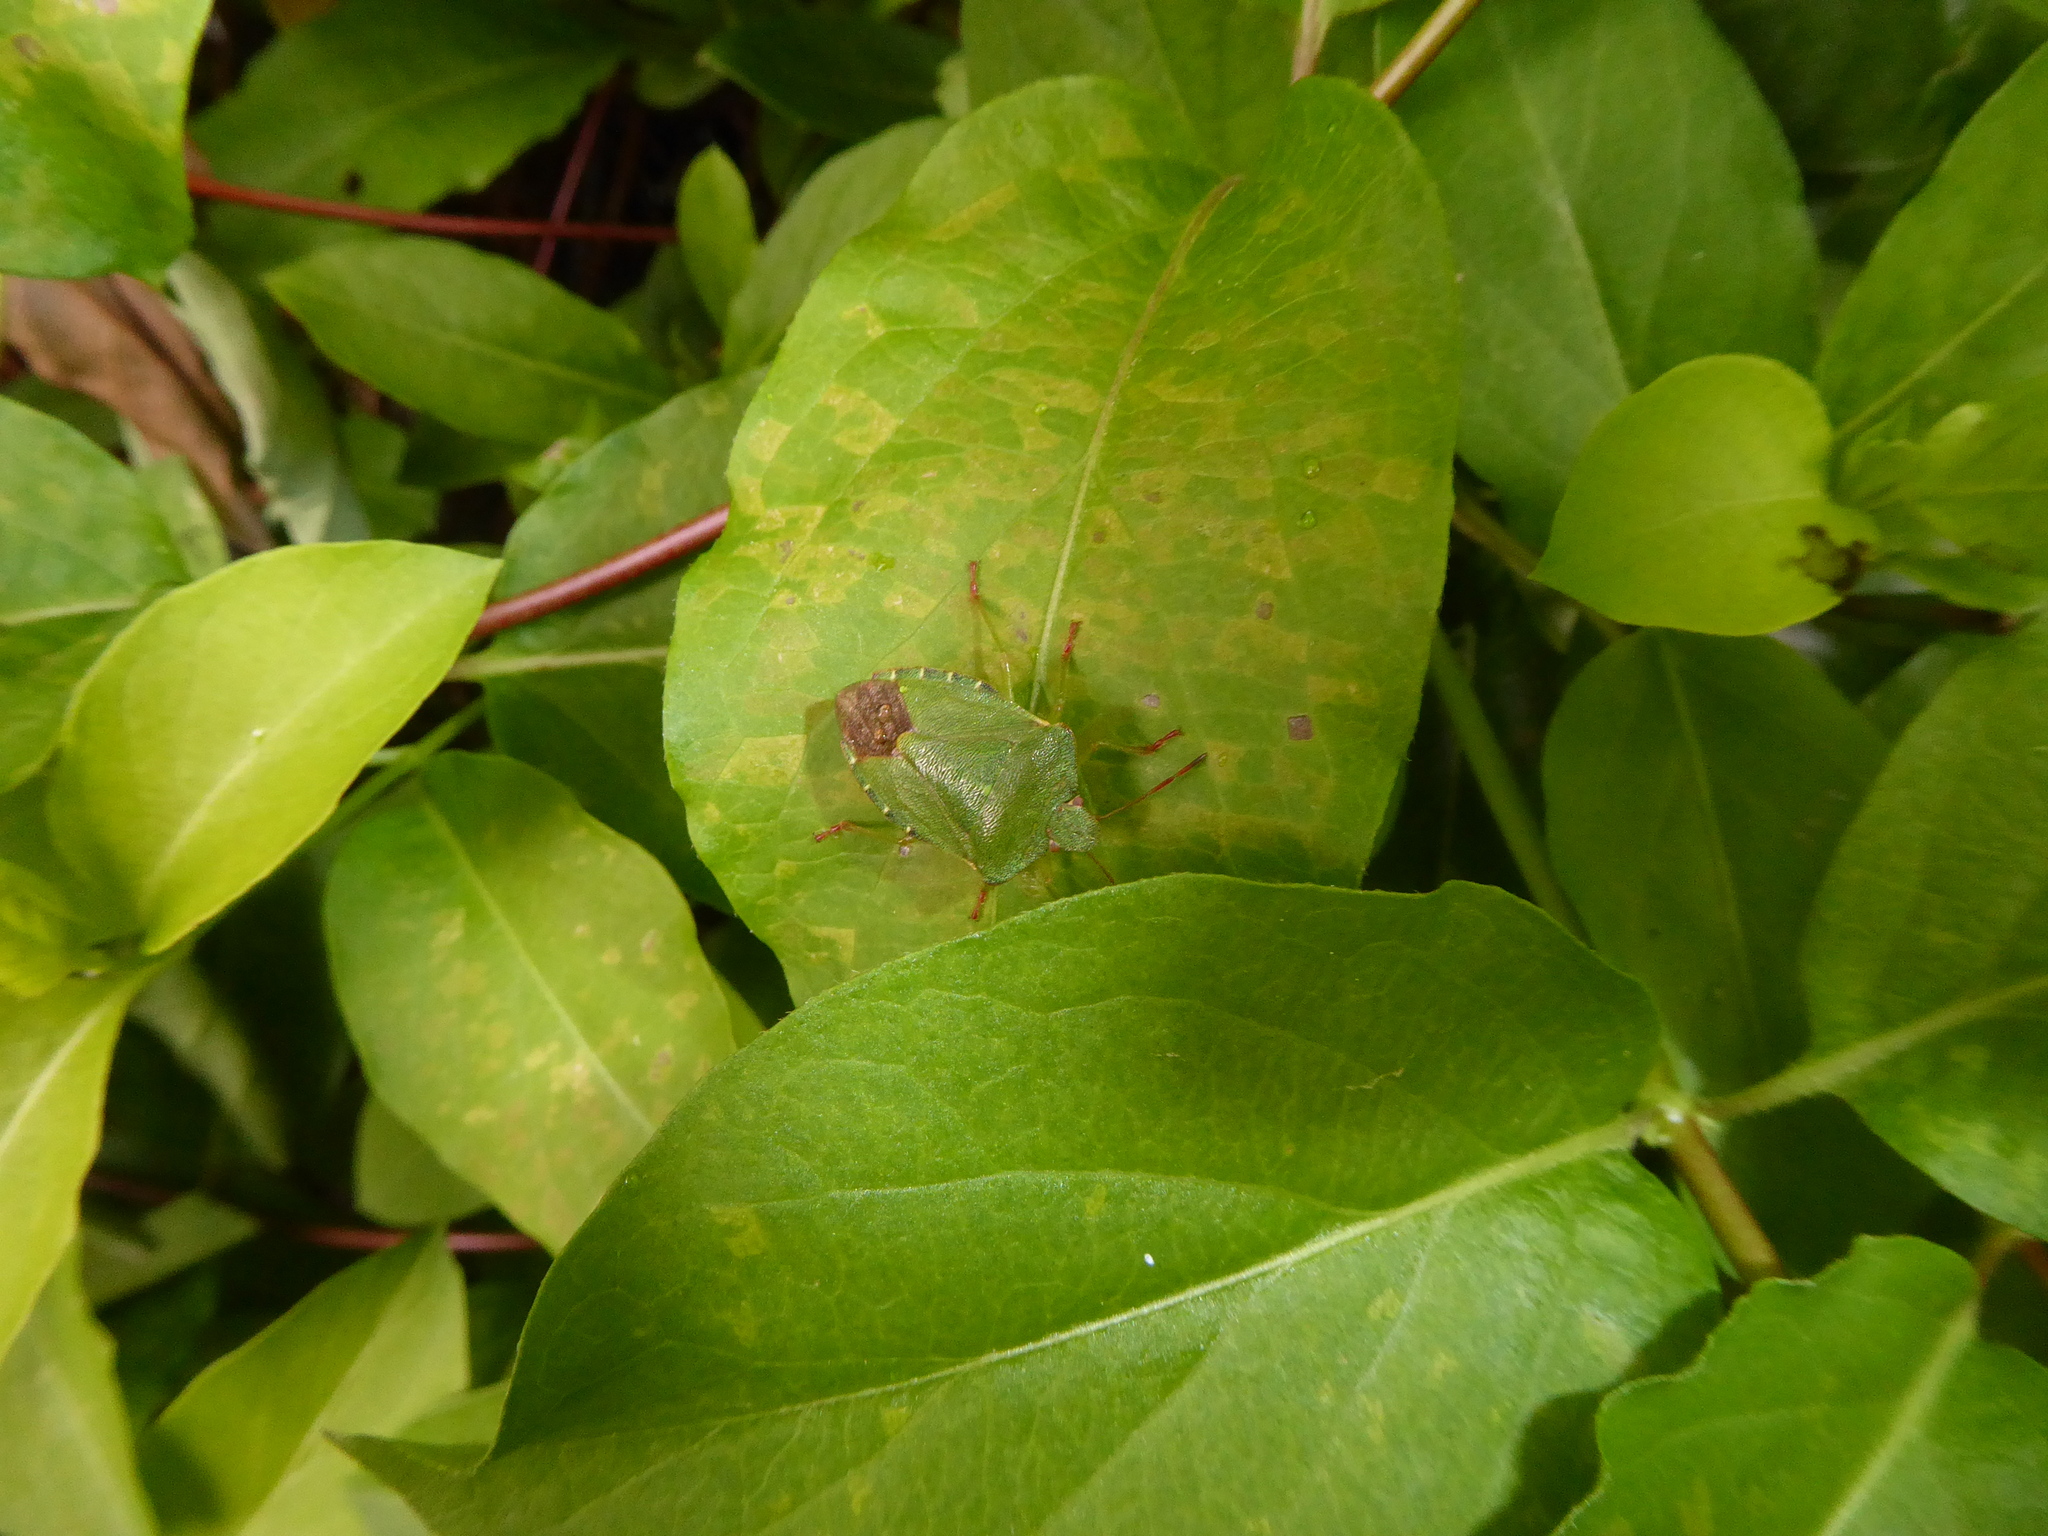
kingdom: Animalia
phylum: Arthropoda
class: Insecta
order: Hemiptera
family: Pentatomidae
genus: Palomena
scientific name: Palomena prasina
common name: Green shieldbug
